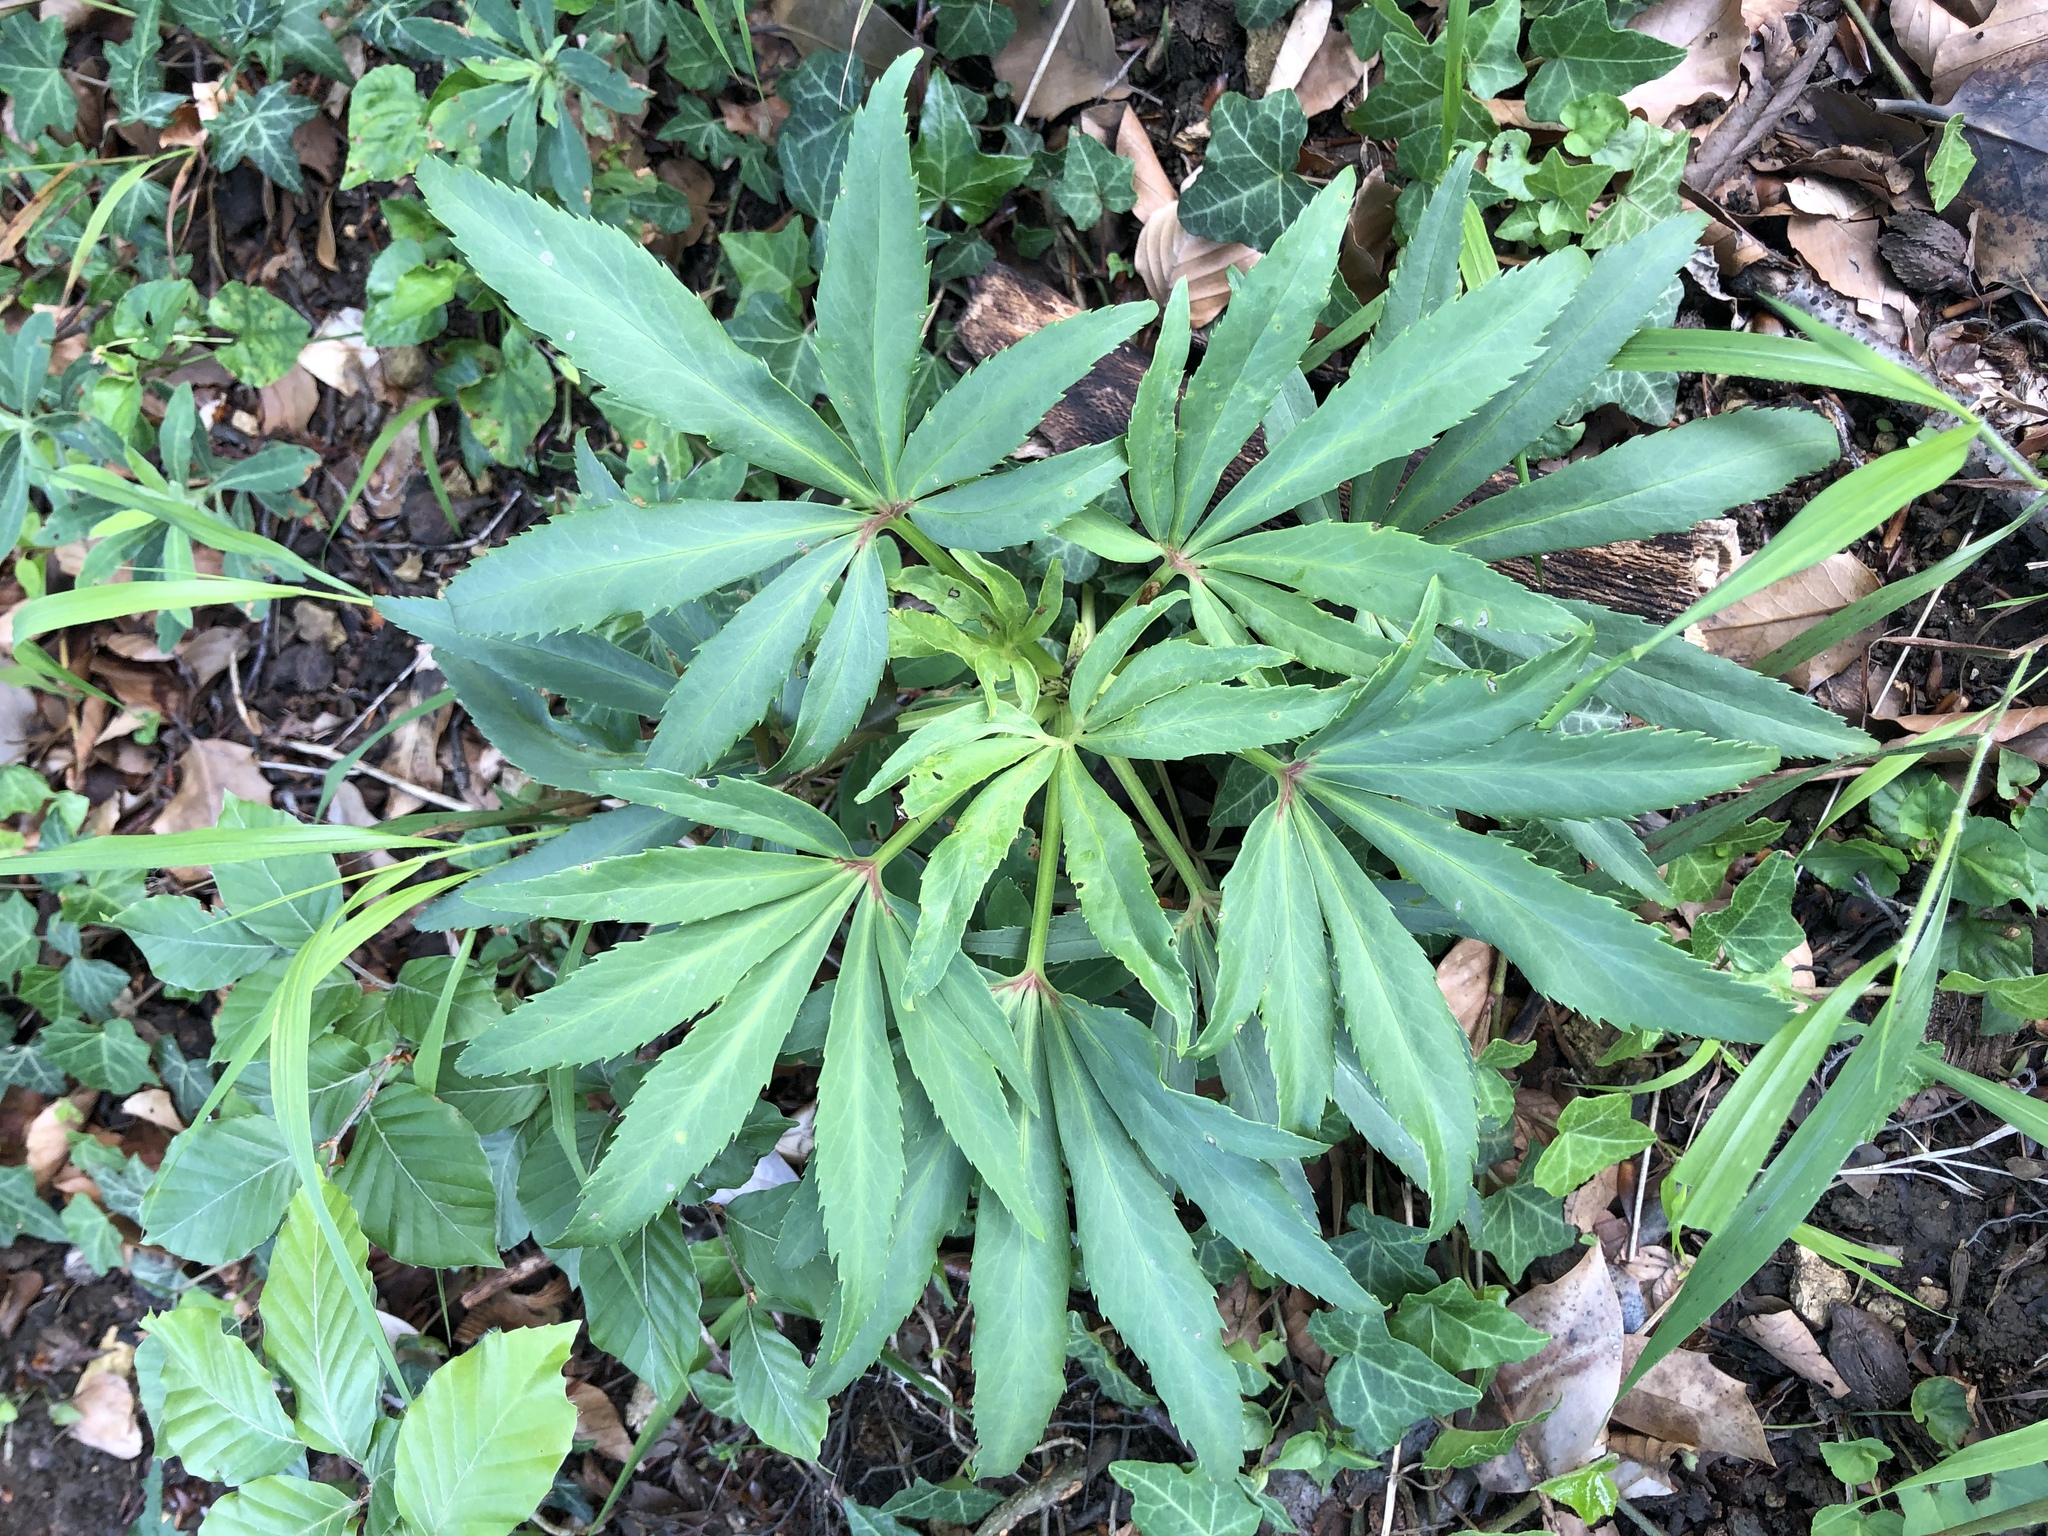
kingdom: Plantae
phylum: Tracheophyta
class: Magnoliopsida
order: Ranunculales
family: Ranunculaceae
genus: Helleborus
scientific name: Helleborus foetidus
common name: Stinking hellebore
